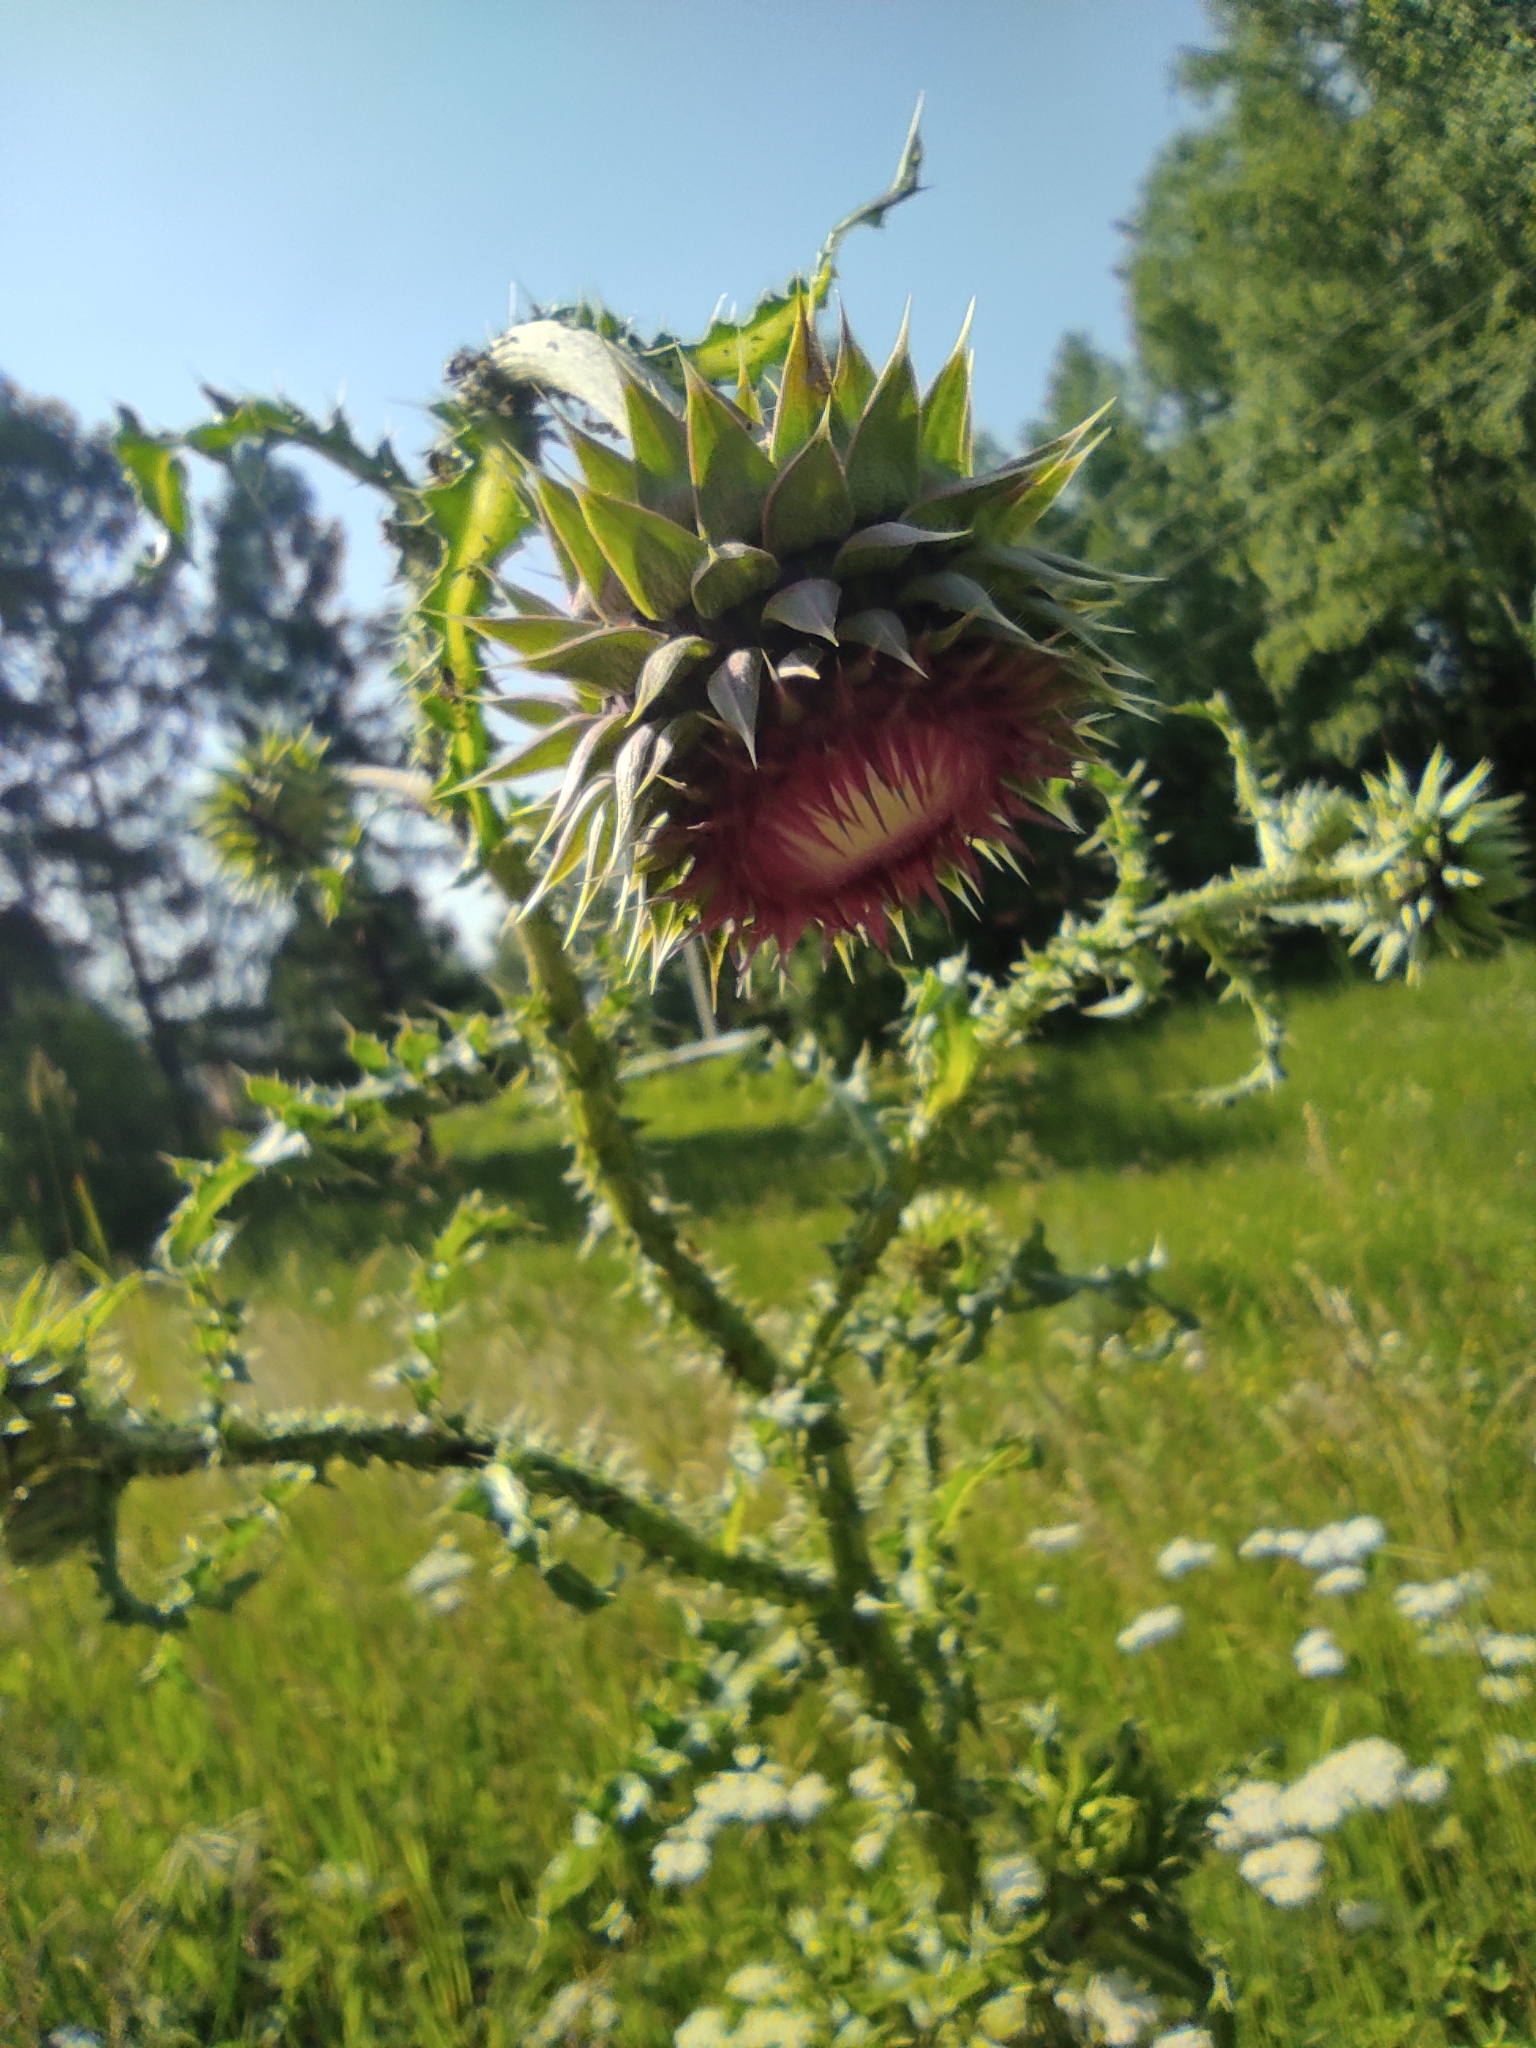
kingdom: Plantae
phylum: Tracheophyta
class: Magnoliopsida
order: Asterales
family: Asteraceae
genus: Carduus
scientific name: Carduus nutans
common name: Musk thistle
